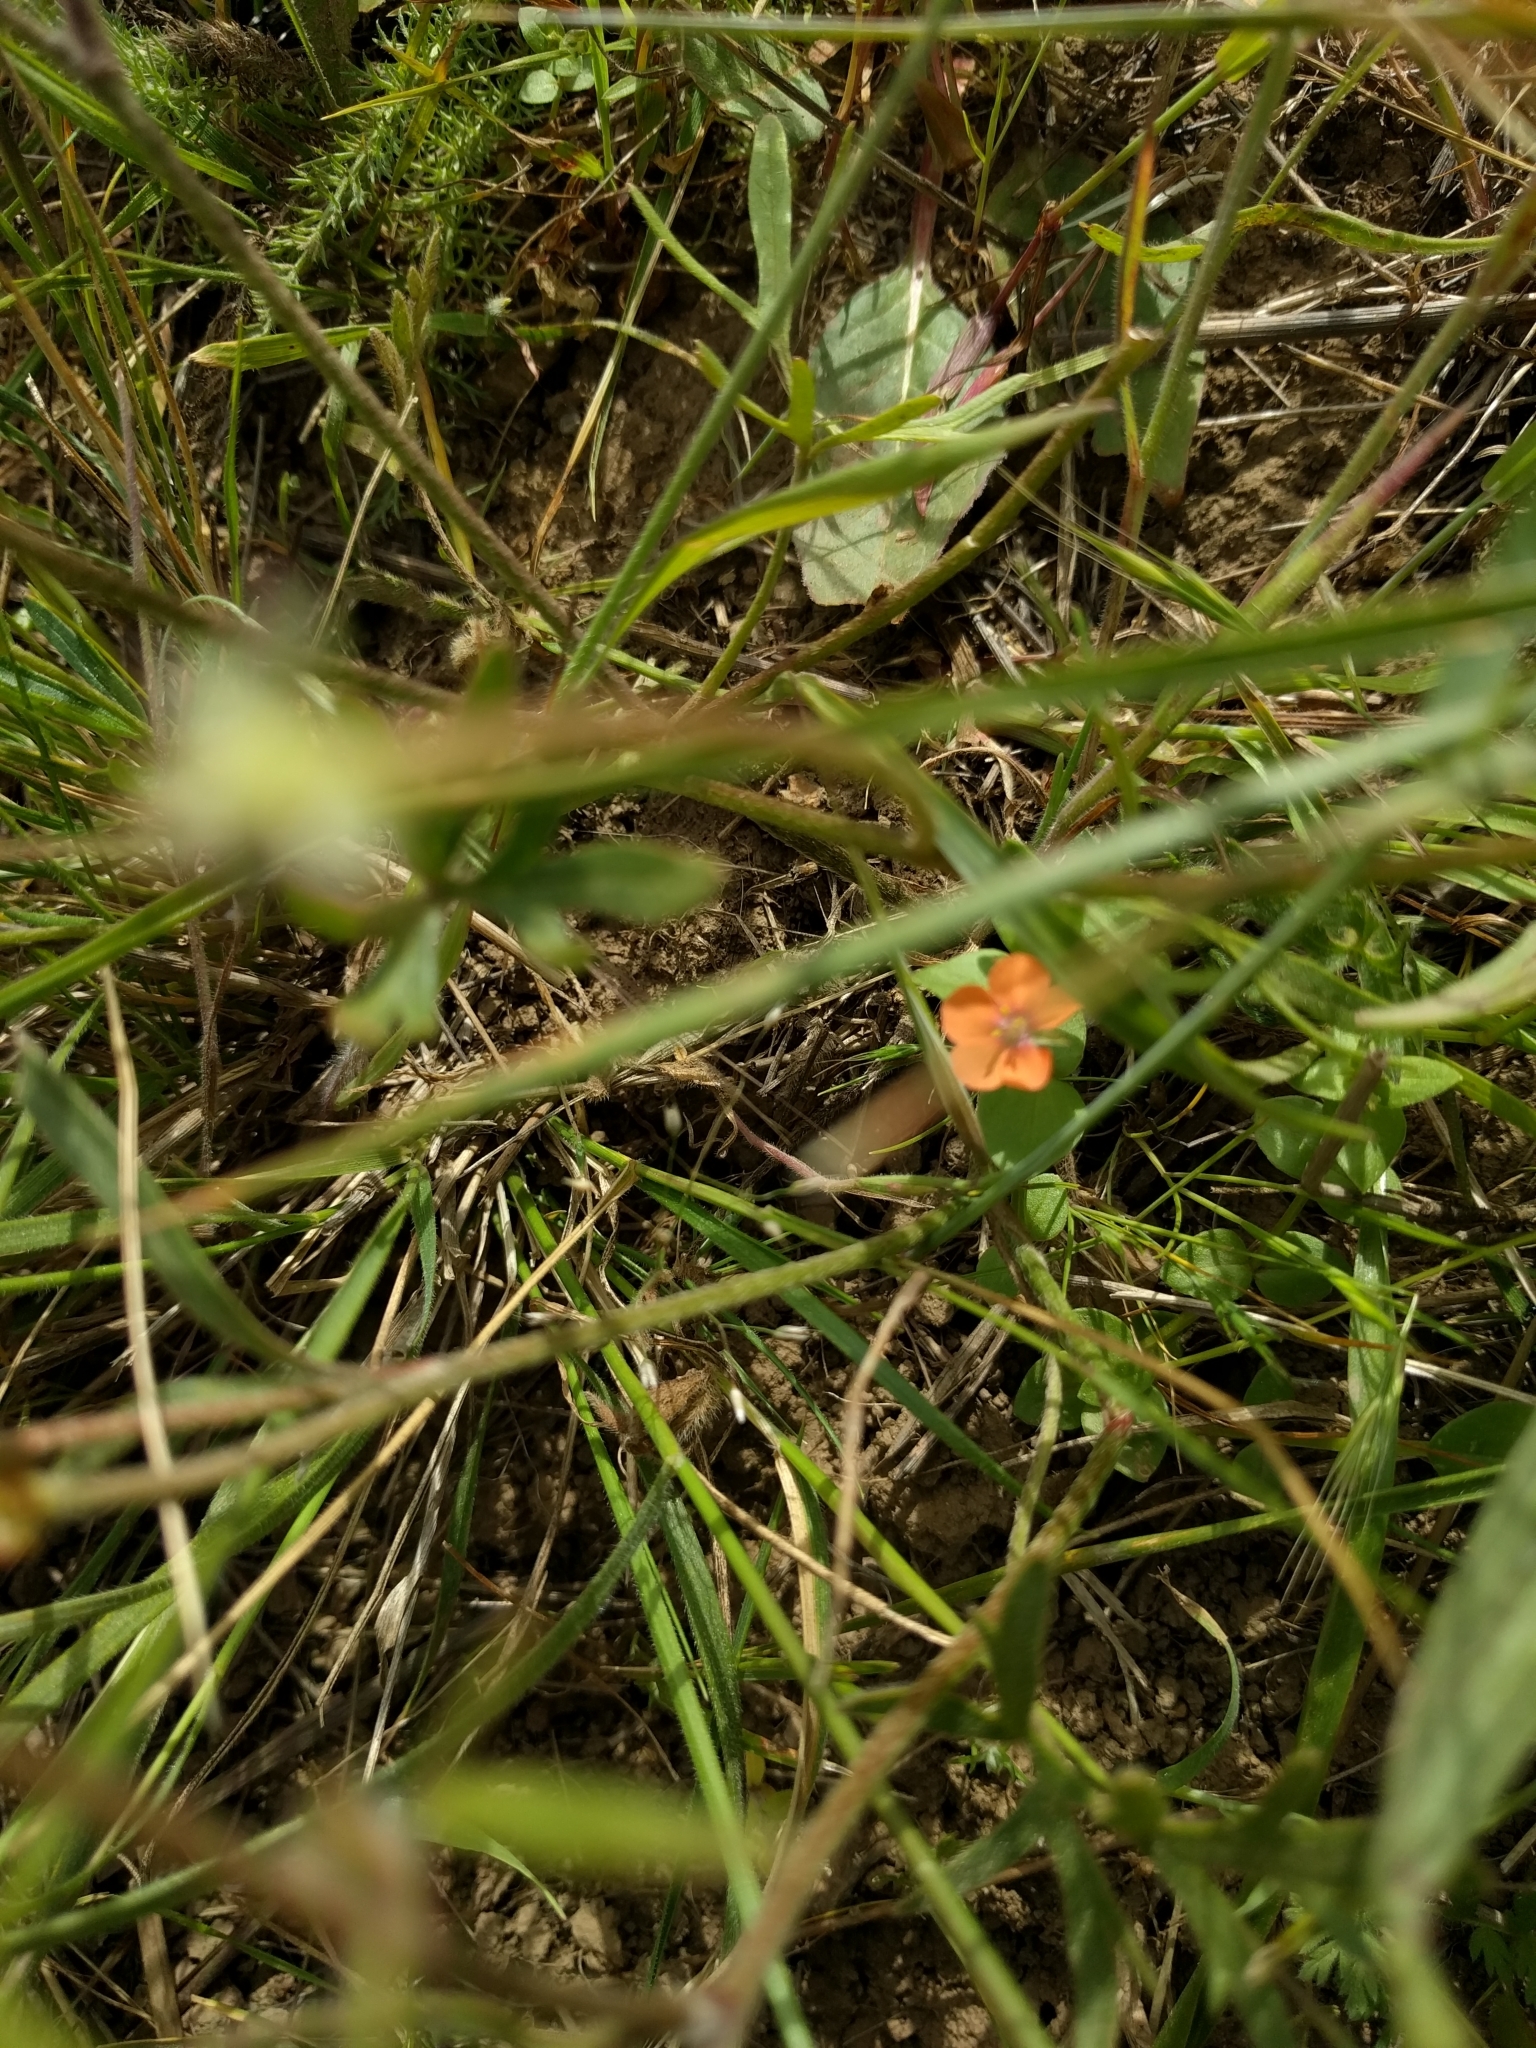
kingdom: Plantae
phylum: Tracheophyta
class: Magnoliopsida
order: Ericales
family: Primulaceae
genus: Lysimachia
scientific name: Lysimachia arvensis
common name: Scarlet pimpernel
